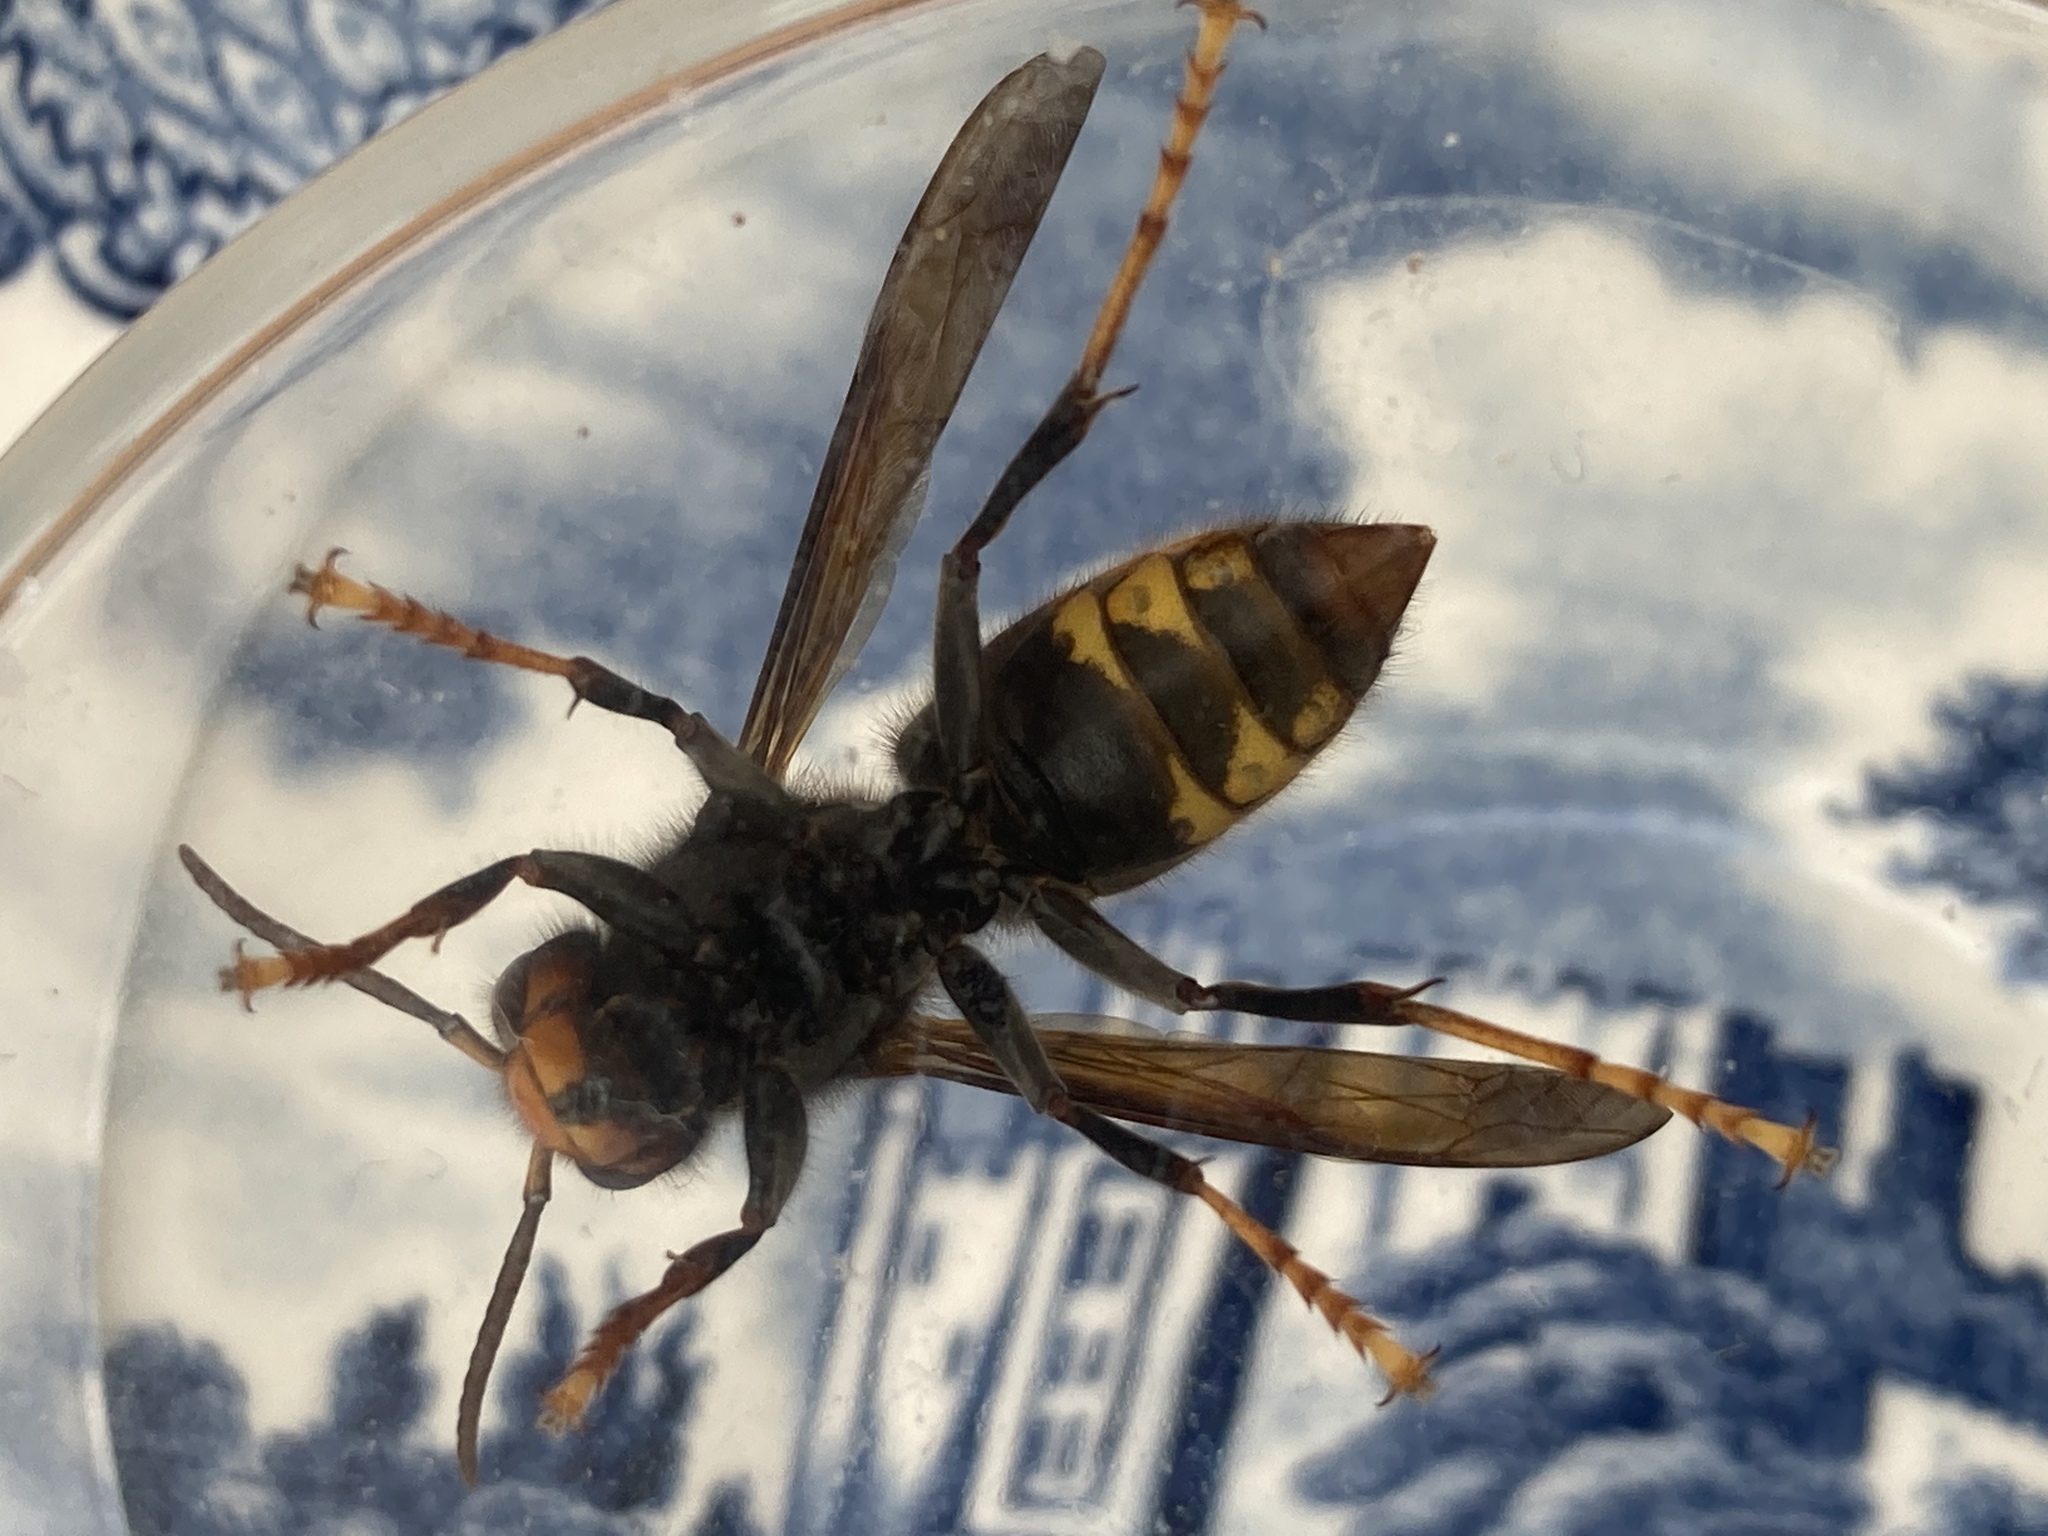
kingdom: Animalia
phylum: Arthropoda
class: Insecta
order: Hymenoptera
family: Vespidae
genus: Vespa
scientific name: Vespa velutina
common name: Asian hornet
